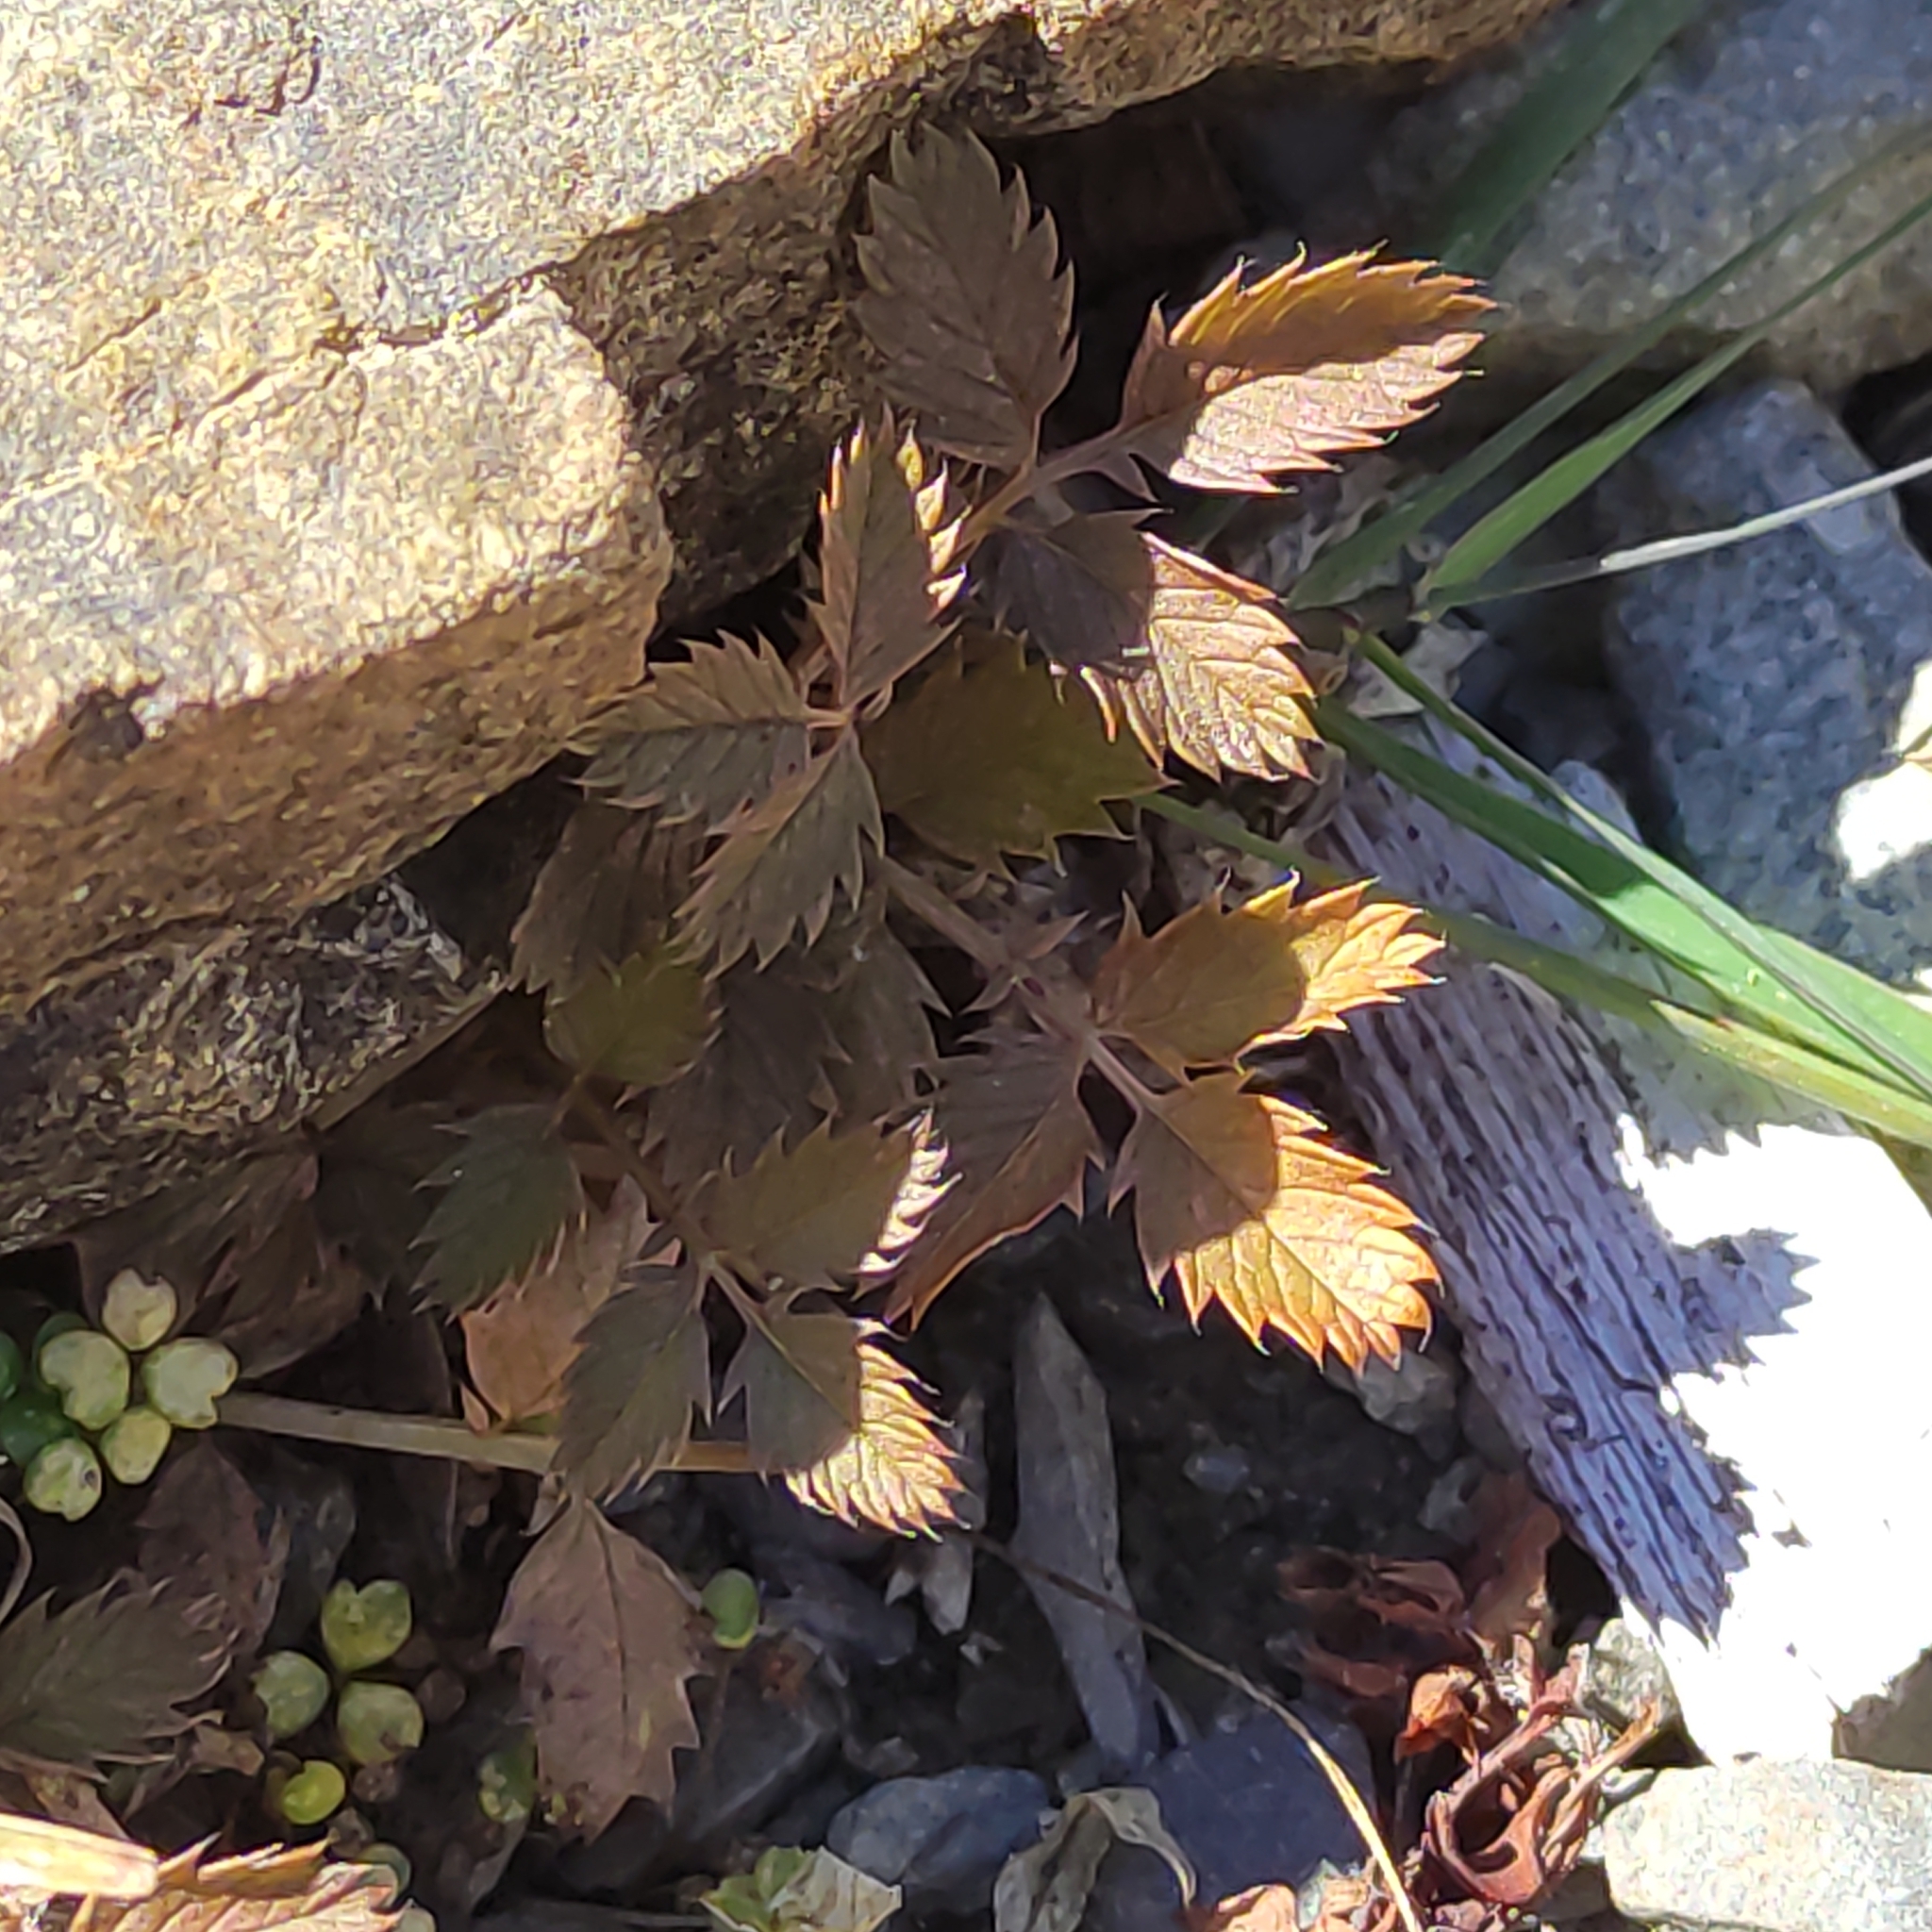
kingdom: Plantae
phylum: Tracheophyta
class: Magnoliopsida
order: Rosales
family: Rosaceae
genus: Argentina
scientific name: Argentina anserinoides
